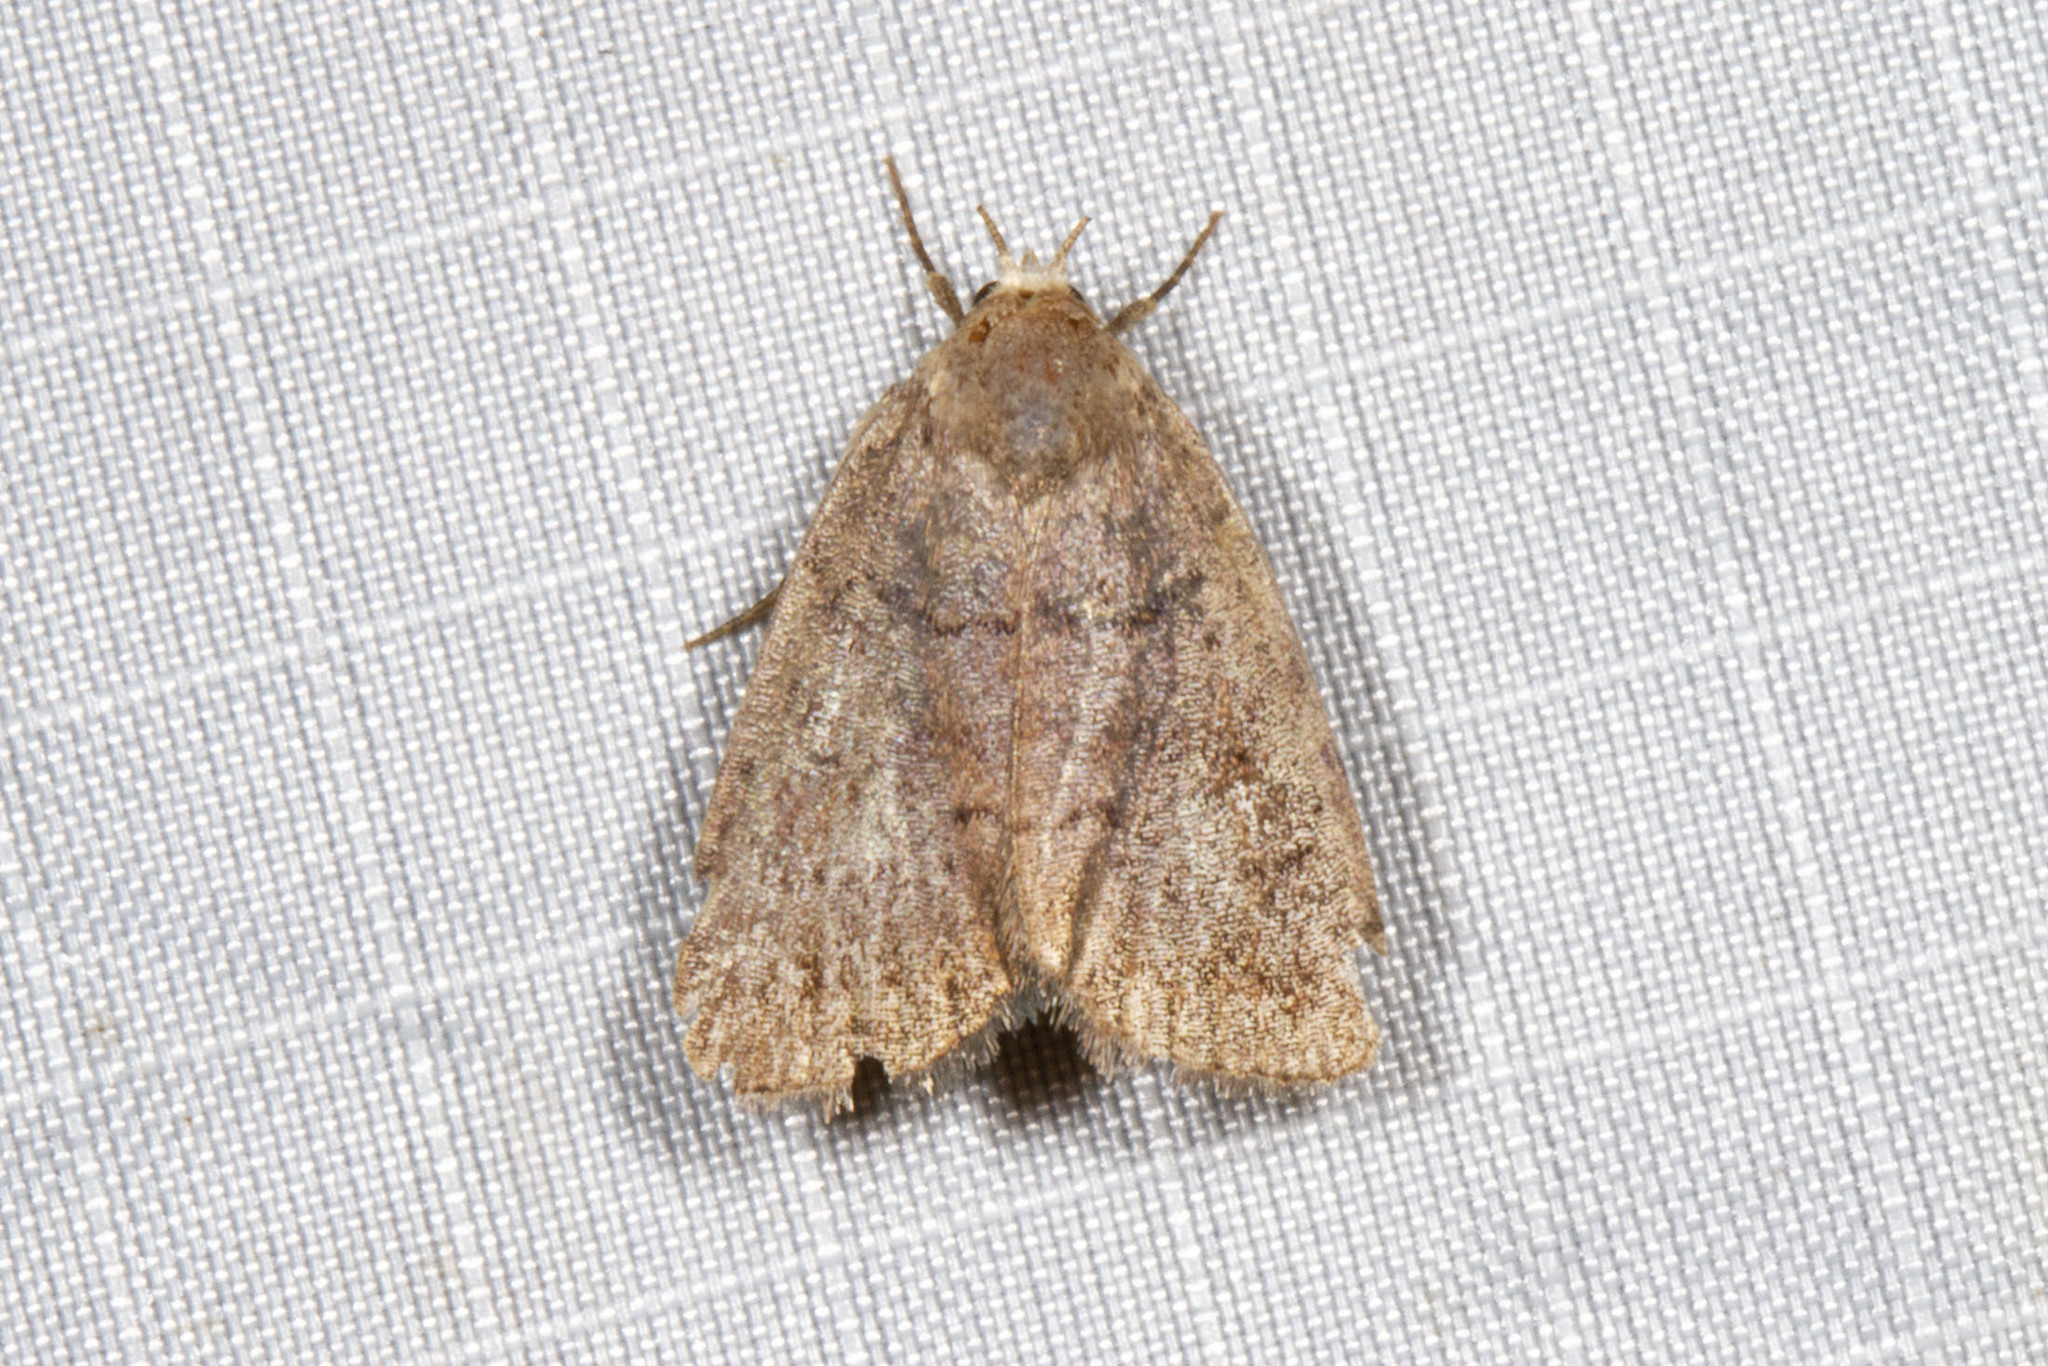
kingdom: Animalia
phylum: Arthropoda
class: Insecta
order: Lepidoptera
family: Noctuidae
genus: Athetis
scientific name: Athetis tarda
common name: Slowpoke moth
